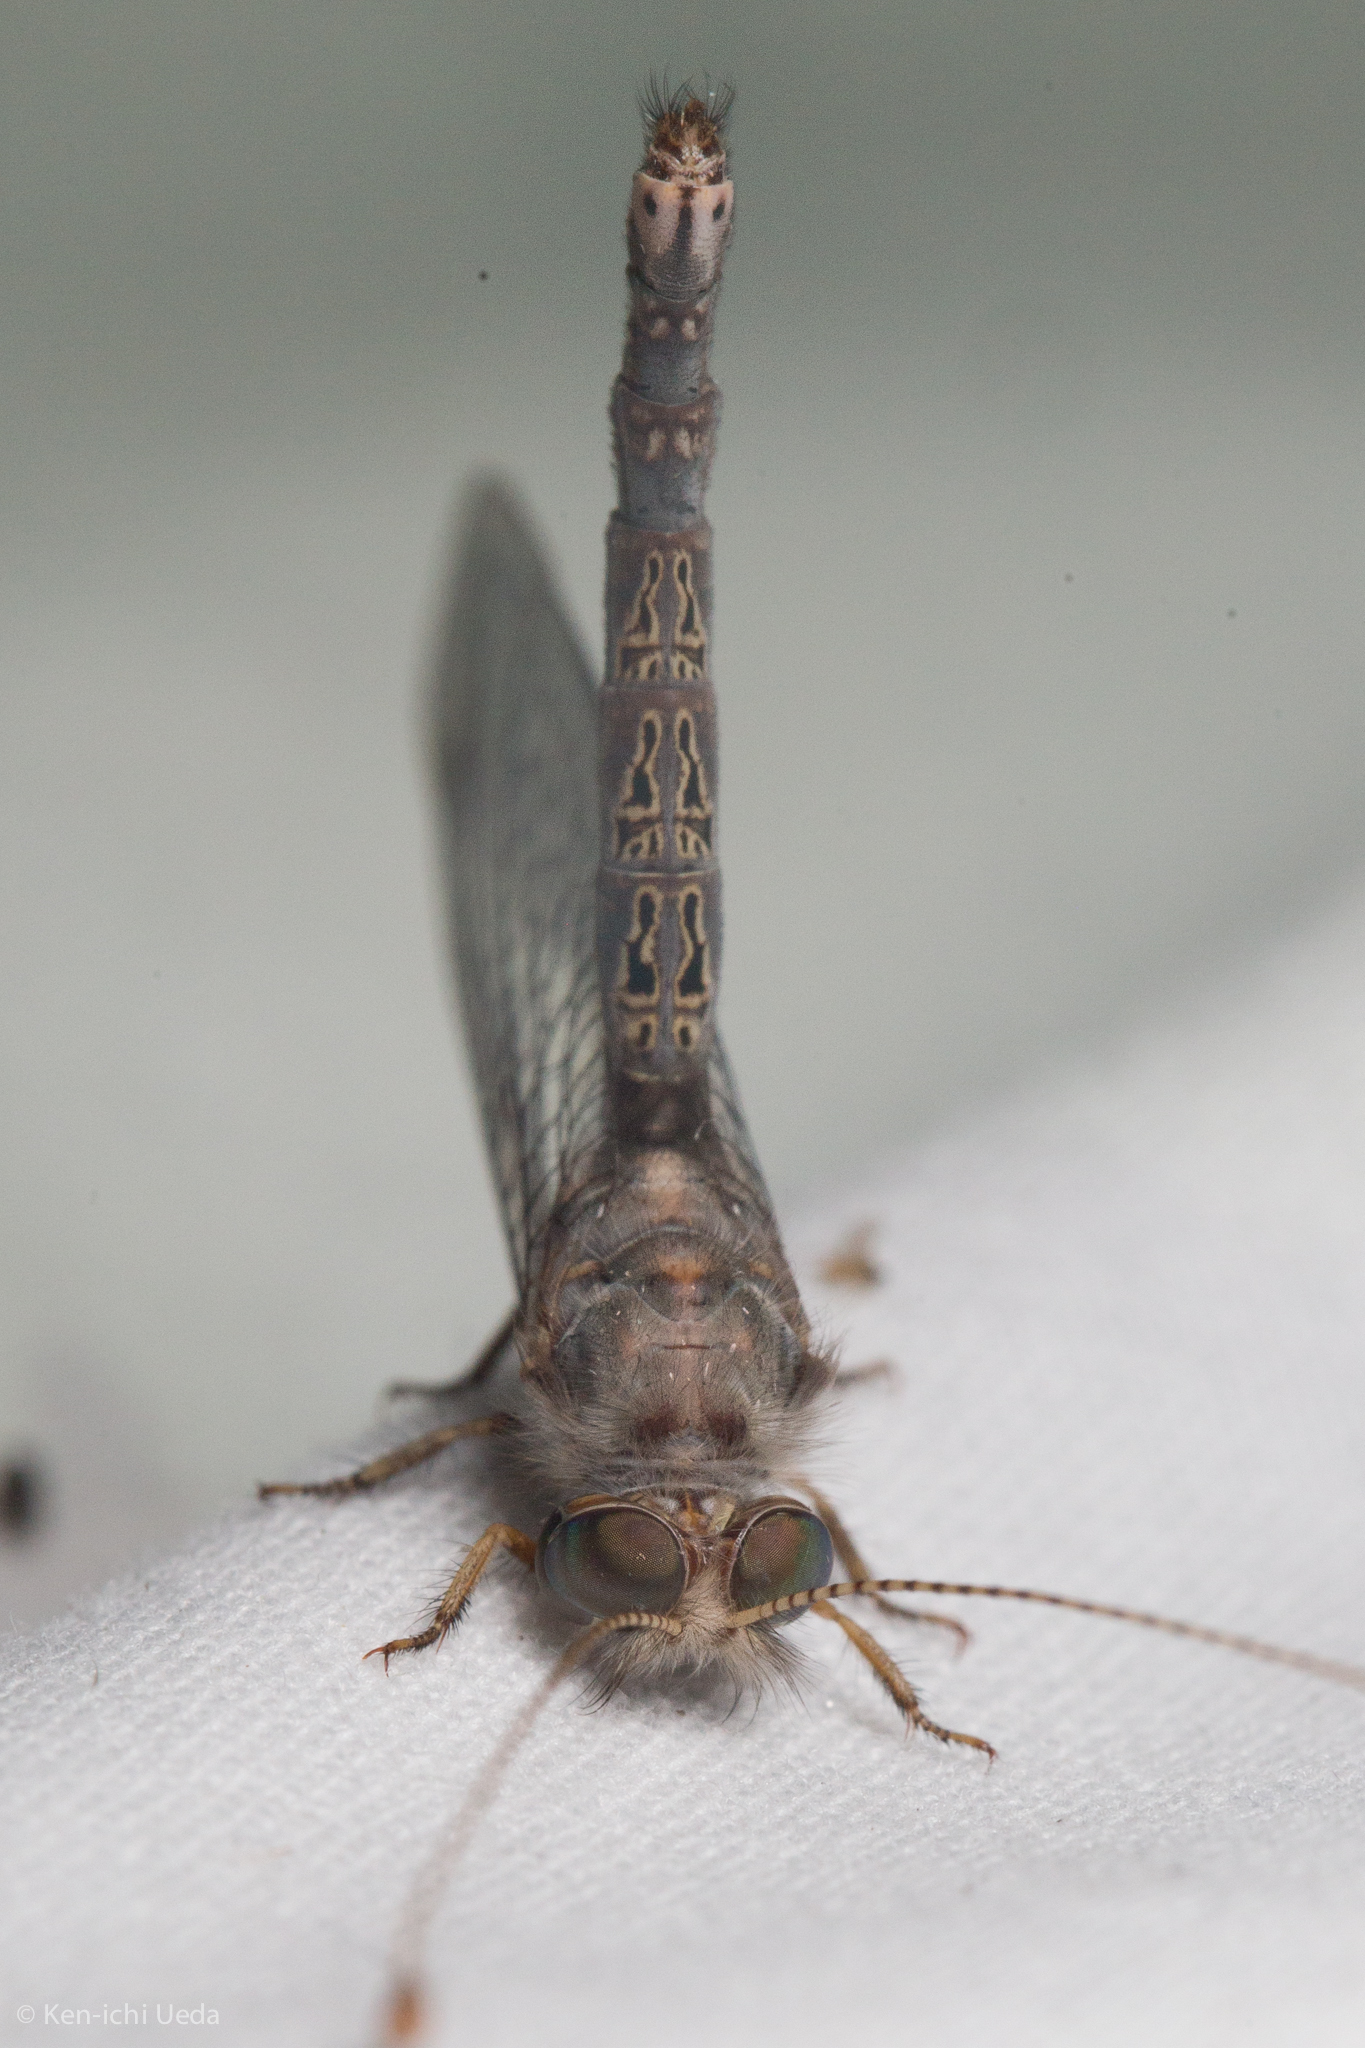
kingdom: Animalia
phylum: Arthropoda
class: Insecta
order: Neuroptera
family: Ascalaphidae
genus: Ululodes
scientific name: Ululodes bicolor
